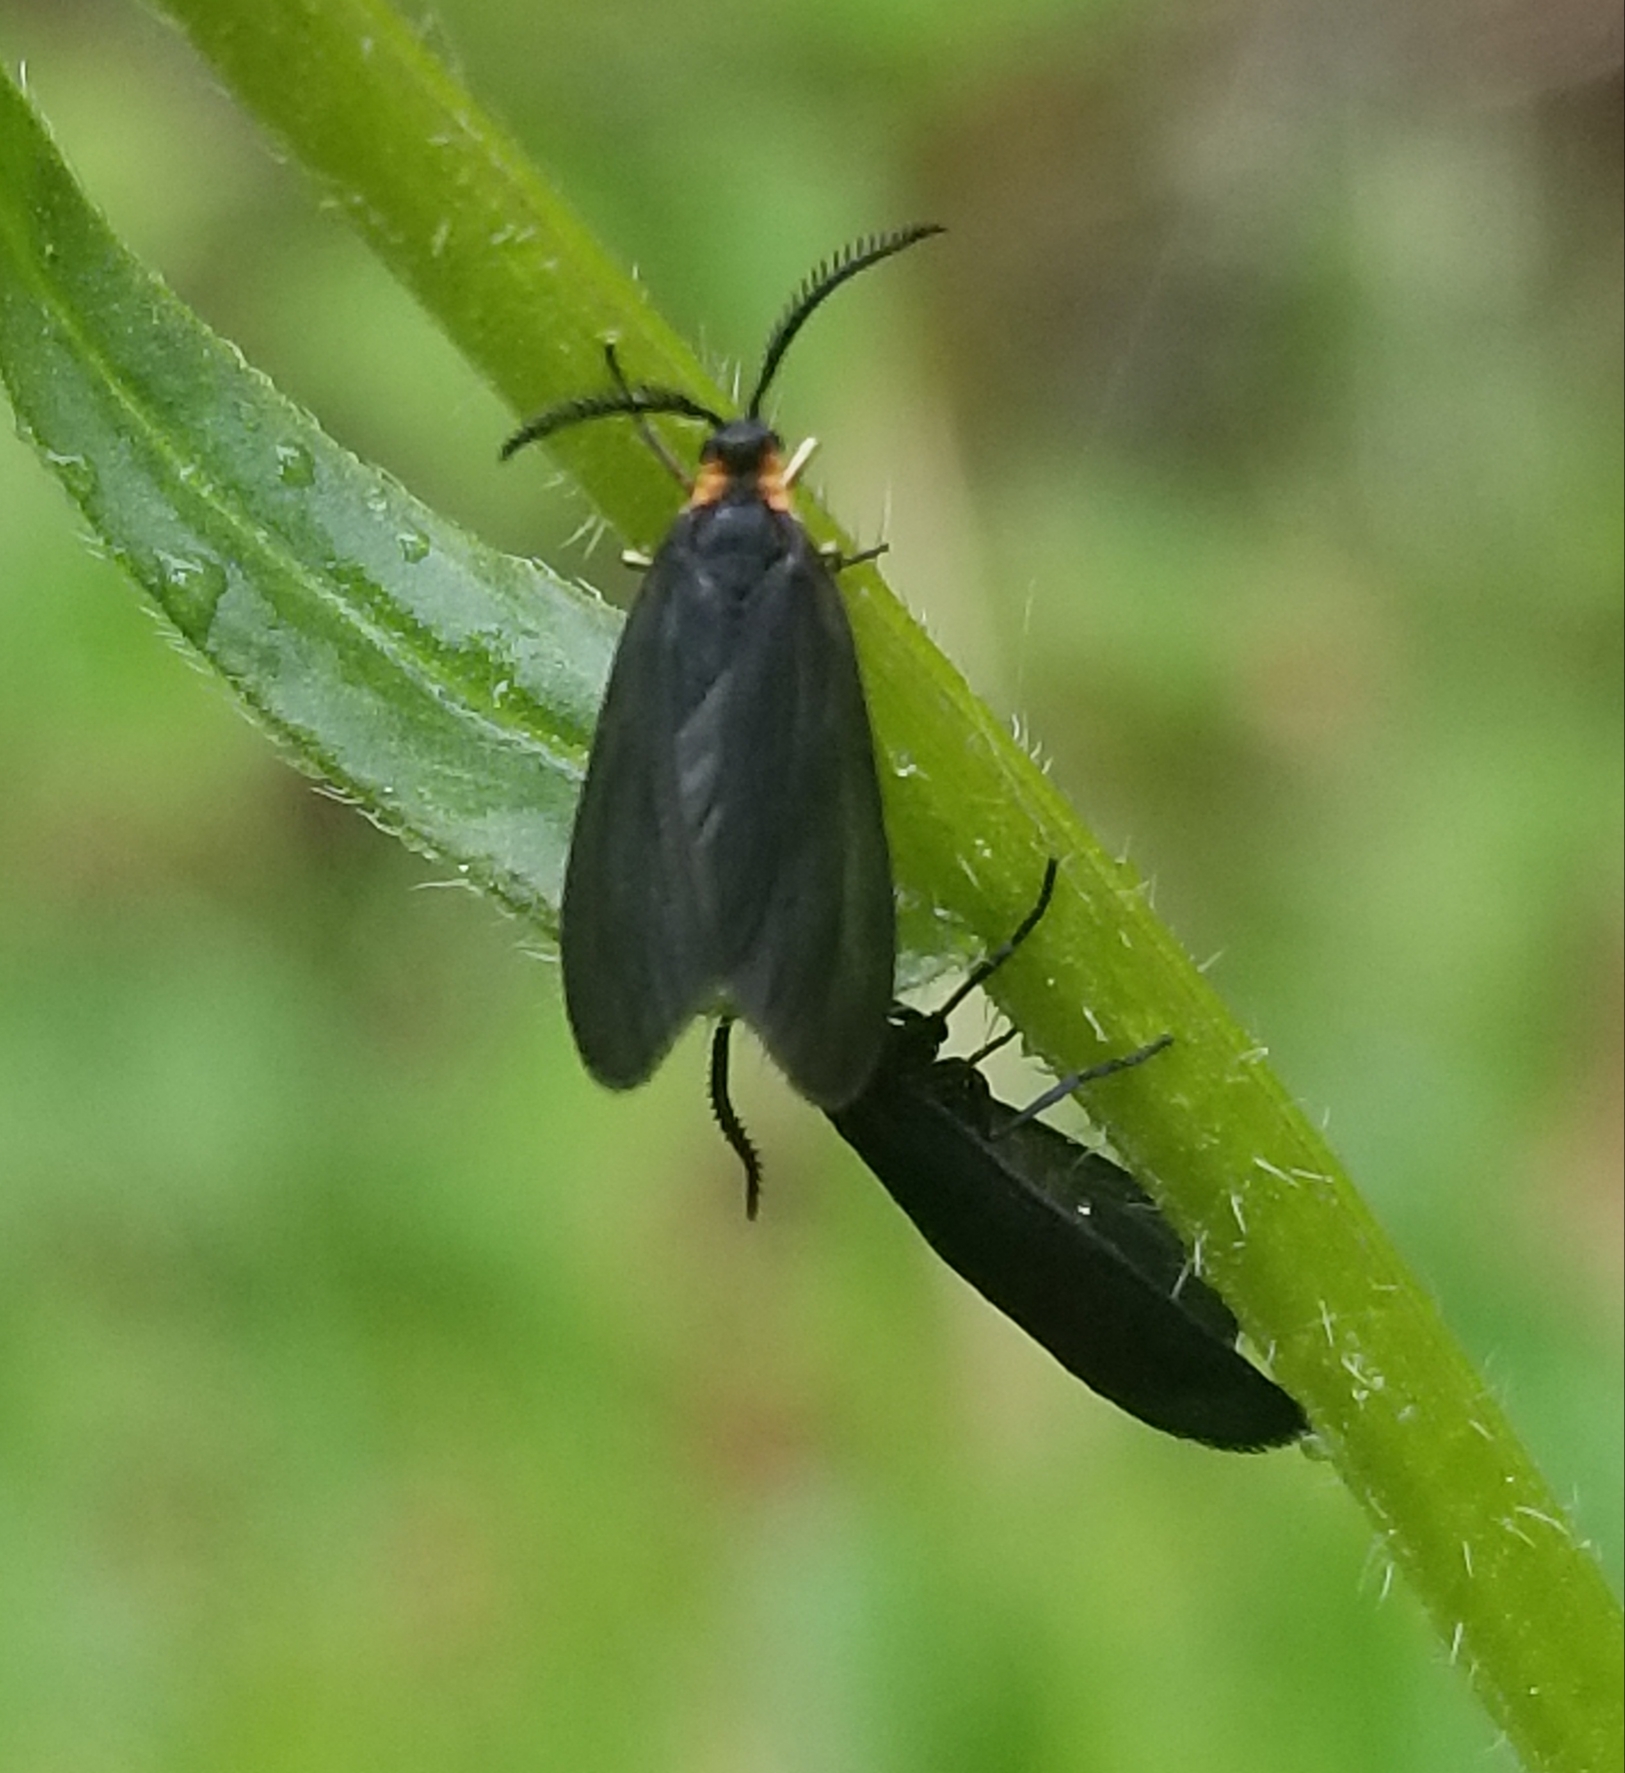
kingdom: Animalia
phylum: Arthropoda
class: Insecta
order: Lepidoptera
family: Zygaenidae
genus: Acoloithus
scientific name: Acoloithus falsarius
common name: Clemens' false skeletonizer
